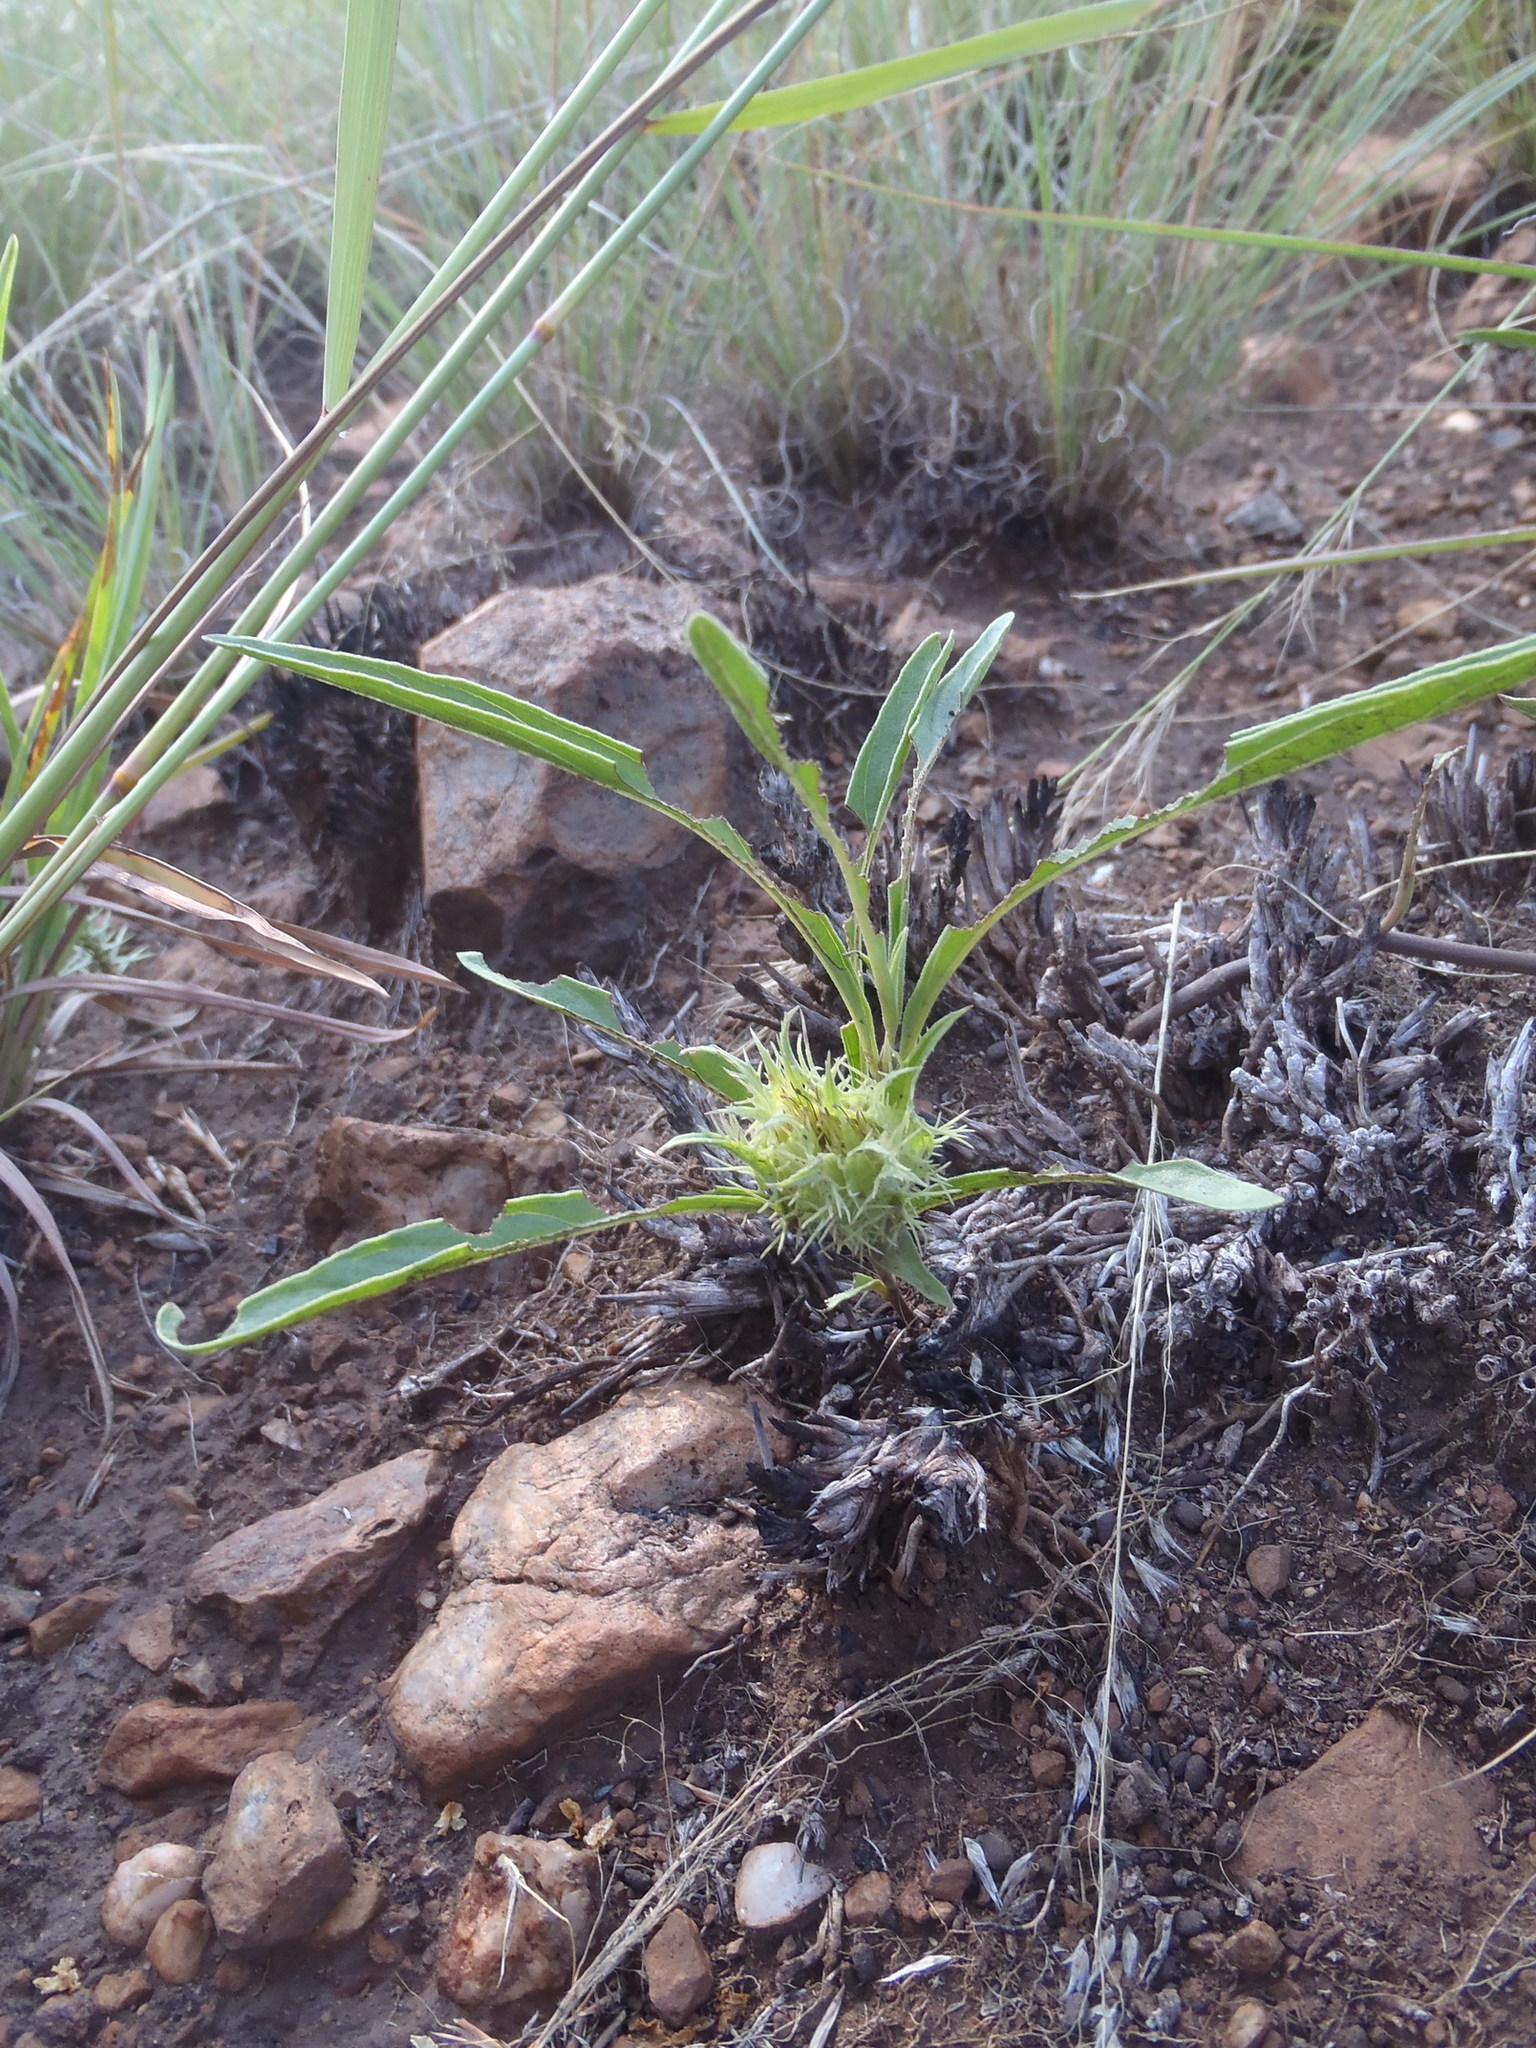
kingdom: Plantae
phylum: Tracheophyta
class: Magnoliopsida
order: Lamiales
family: Acanthaceae
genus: Crabbea
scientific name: Crabbea cirsioides
